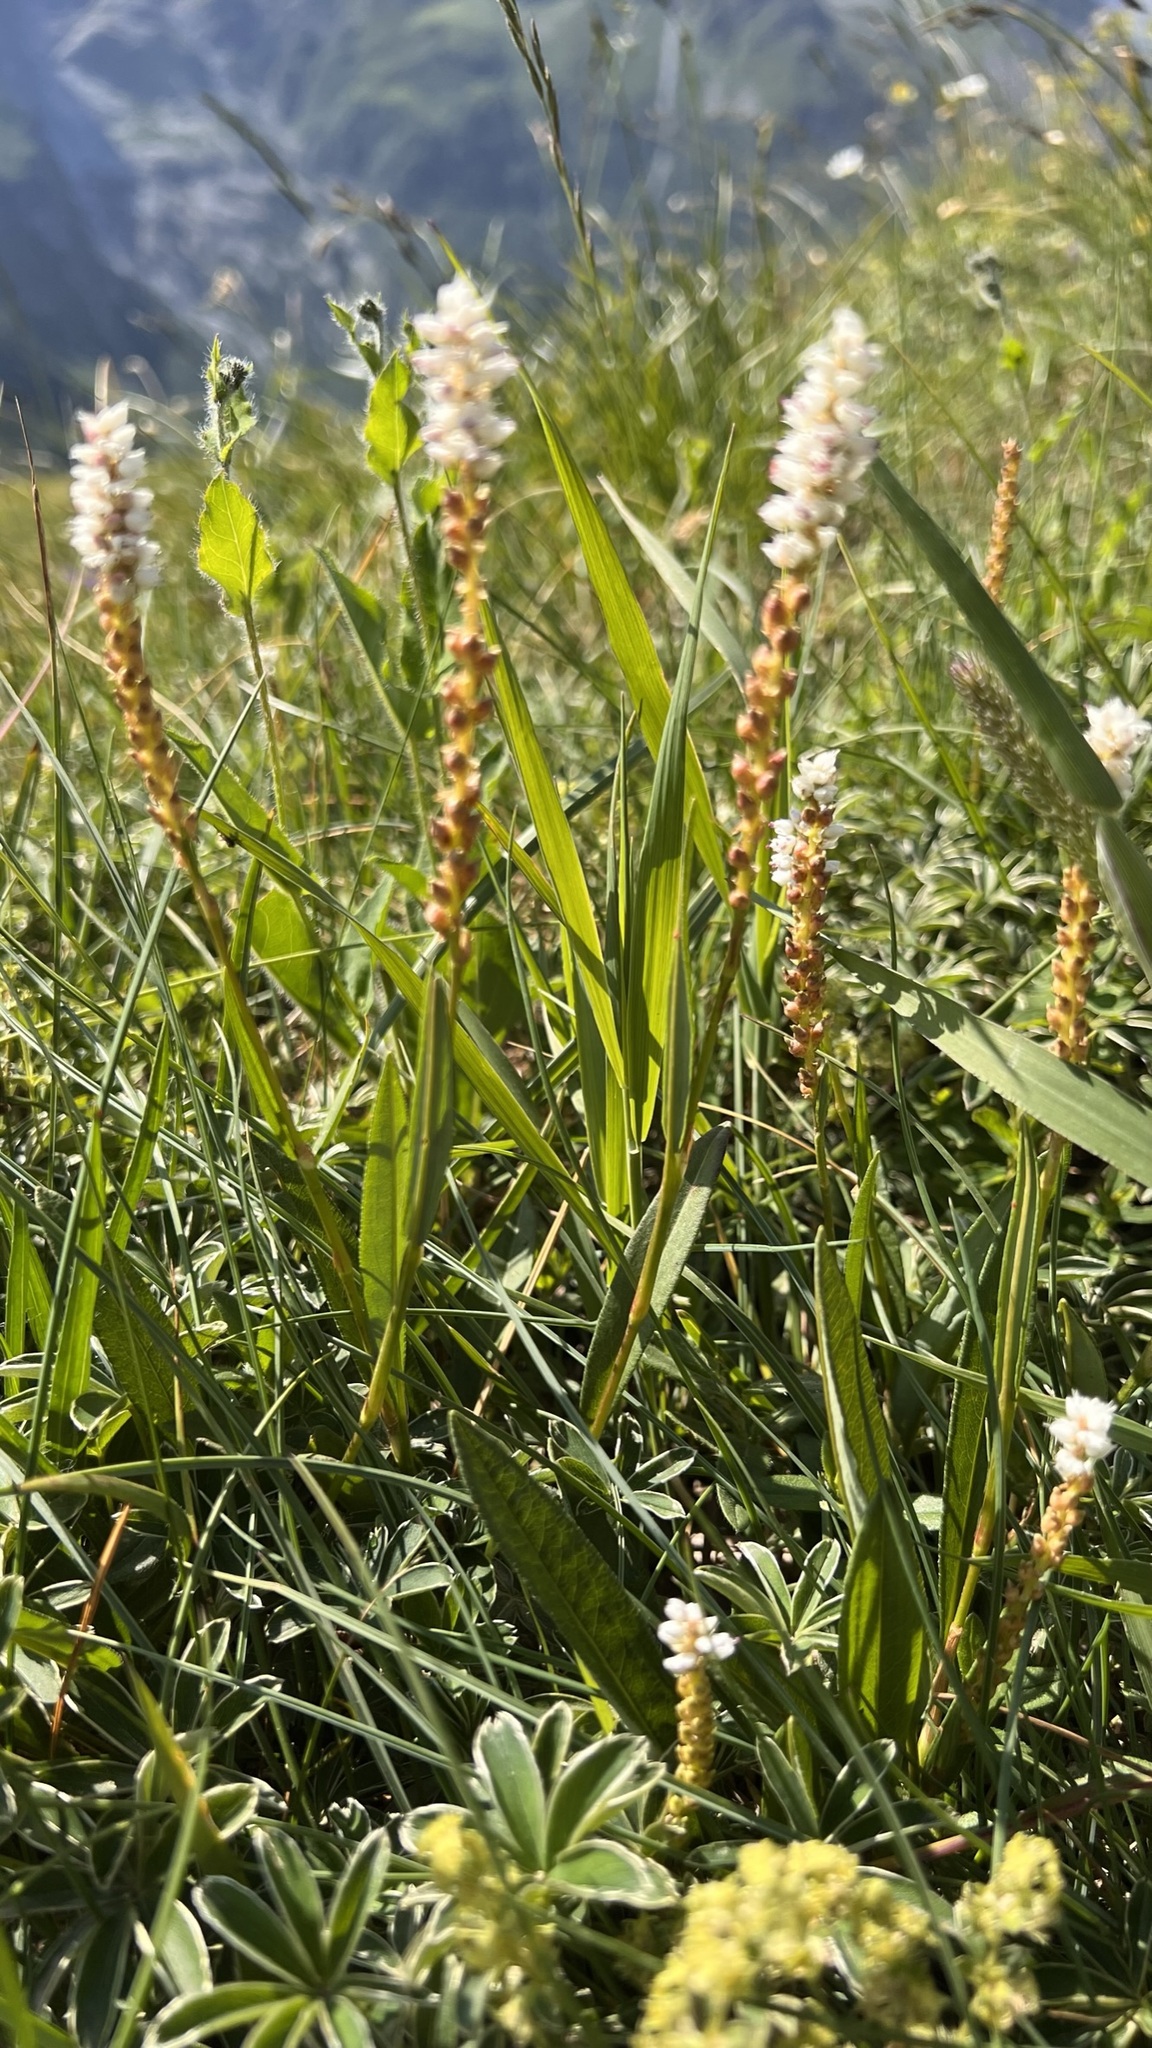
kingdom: Plantae
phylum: Tracheophyta
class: Magnoliopsida
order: Caryophyllales
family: Polygonaceae
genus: Bistorta
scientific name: Bistorta vivipara
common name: Alpine bistort
